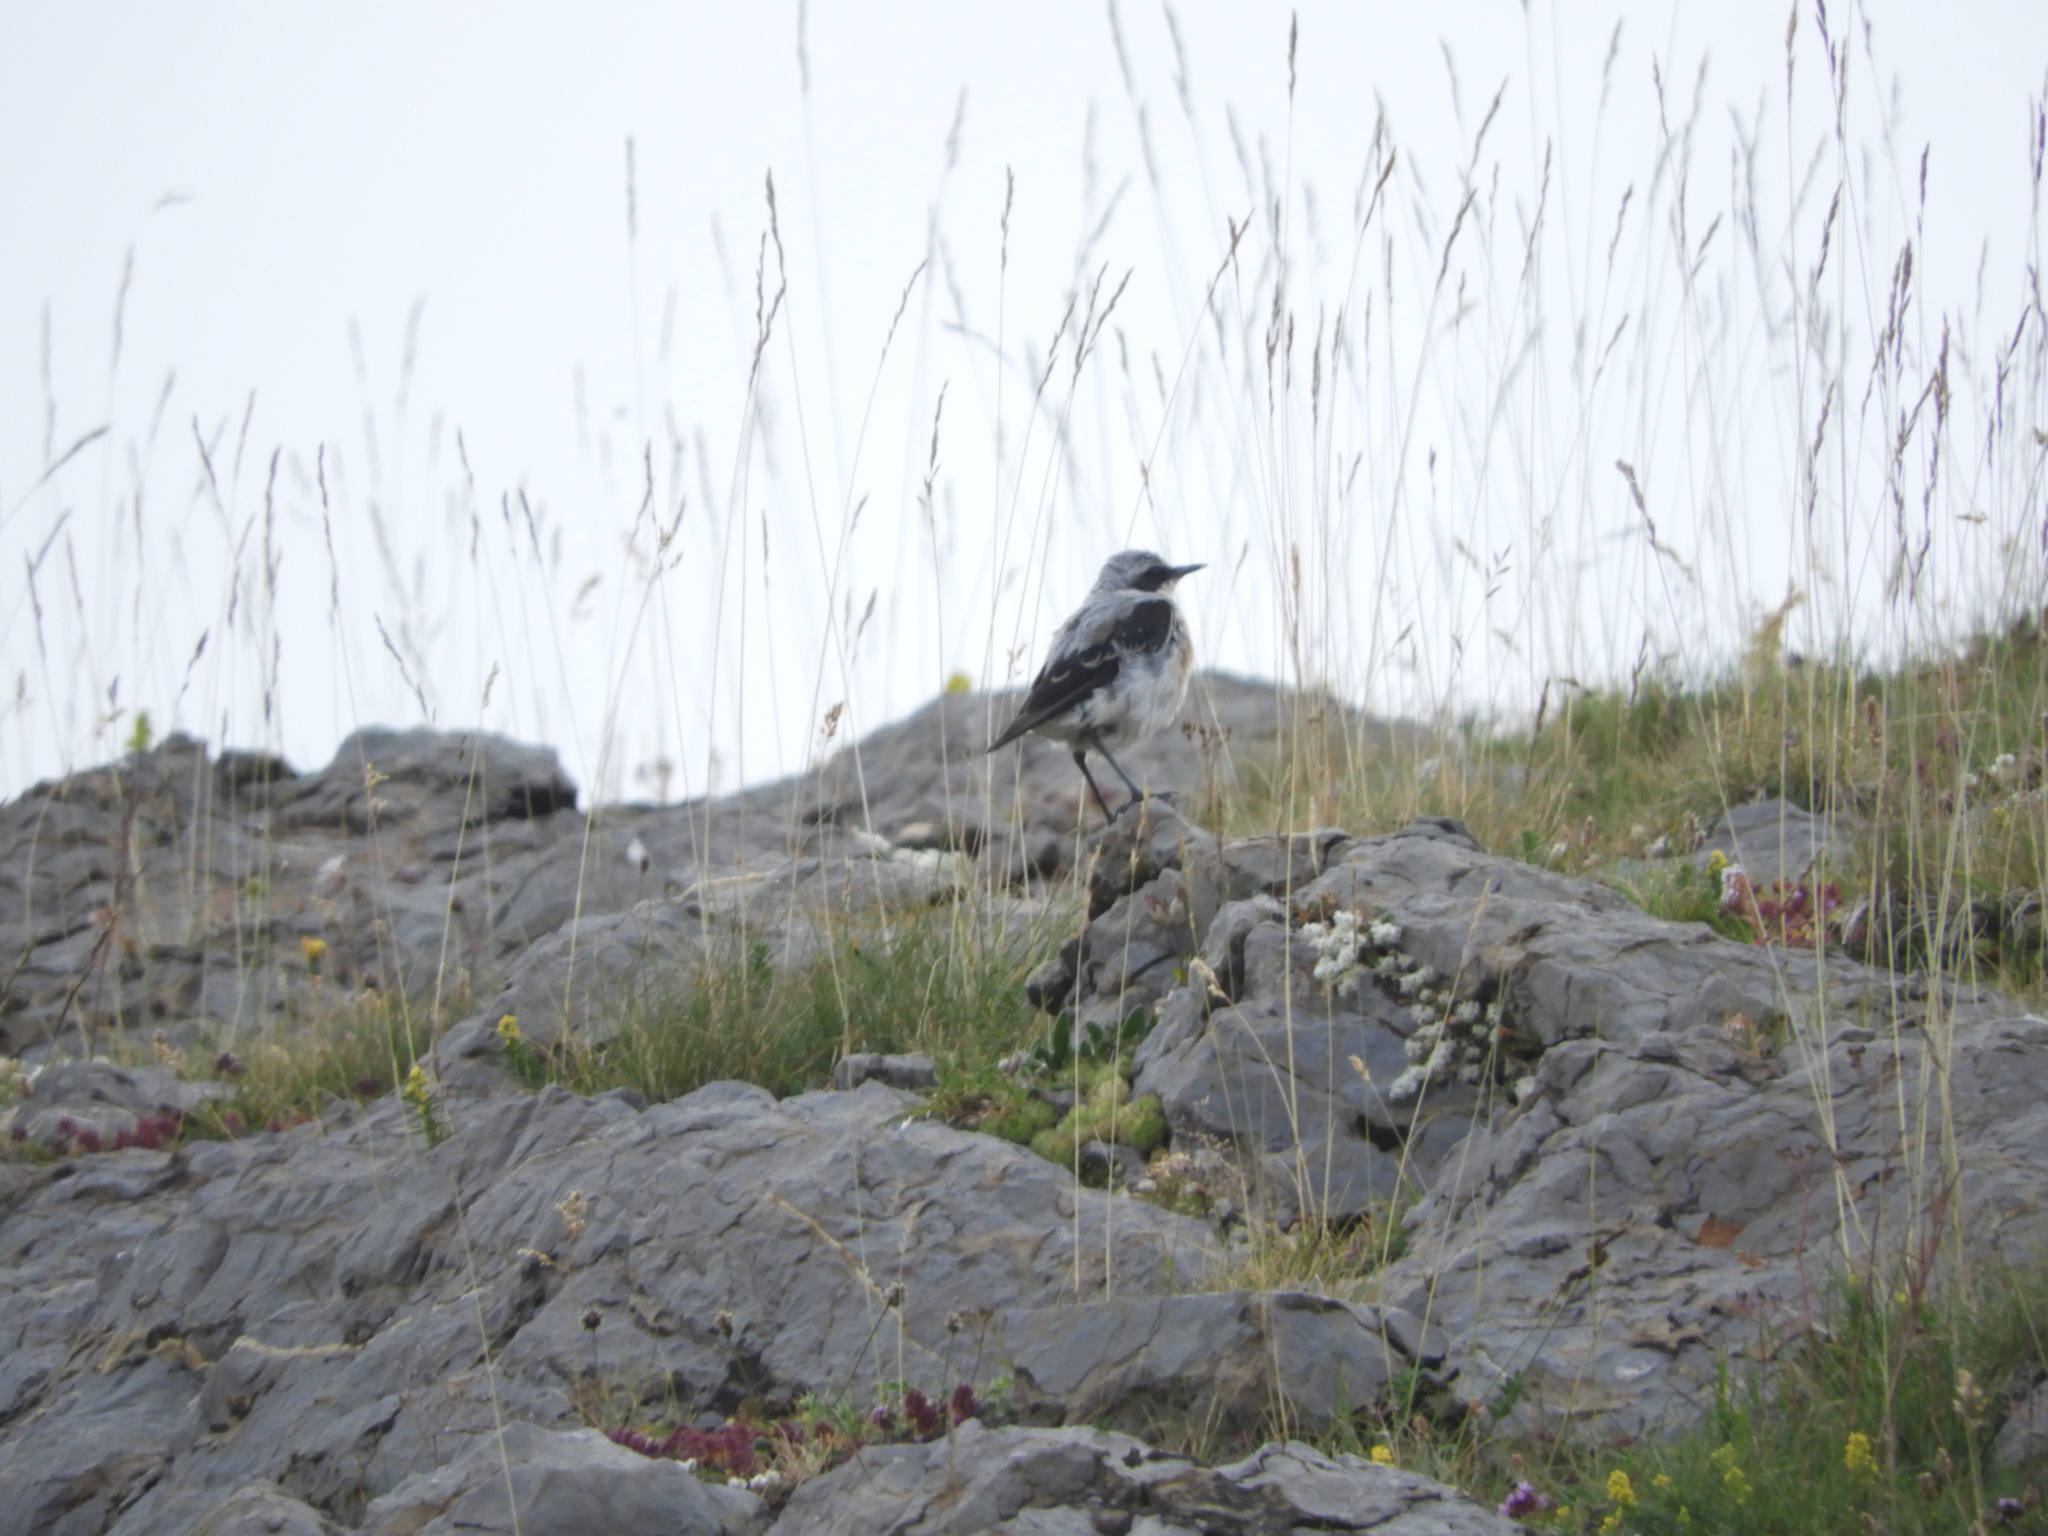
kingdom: Animalia
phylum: Chordata
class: Aves
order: Passeriformes
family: Muscicapidae
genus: Oenanthe
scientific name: Oenanthe oenanthe
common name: Northern wheatear
